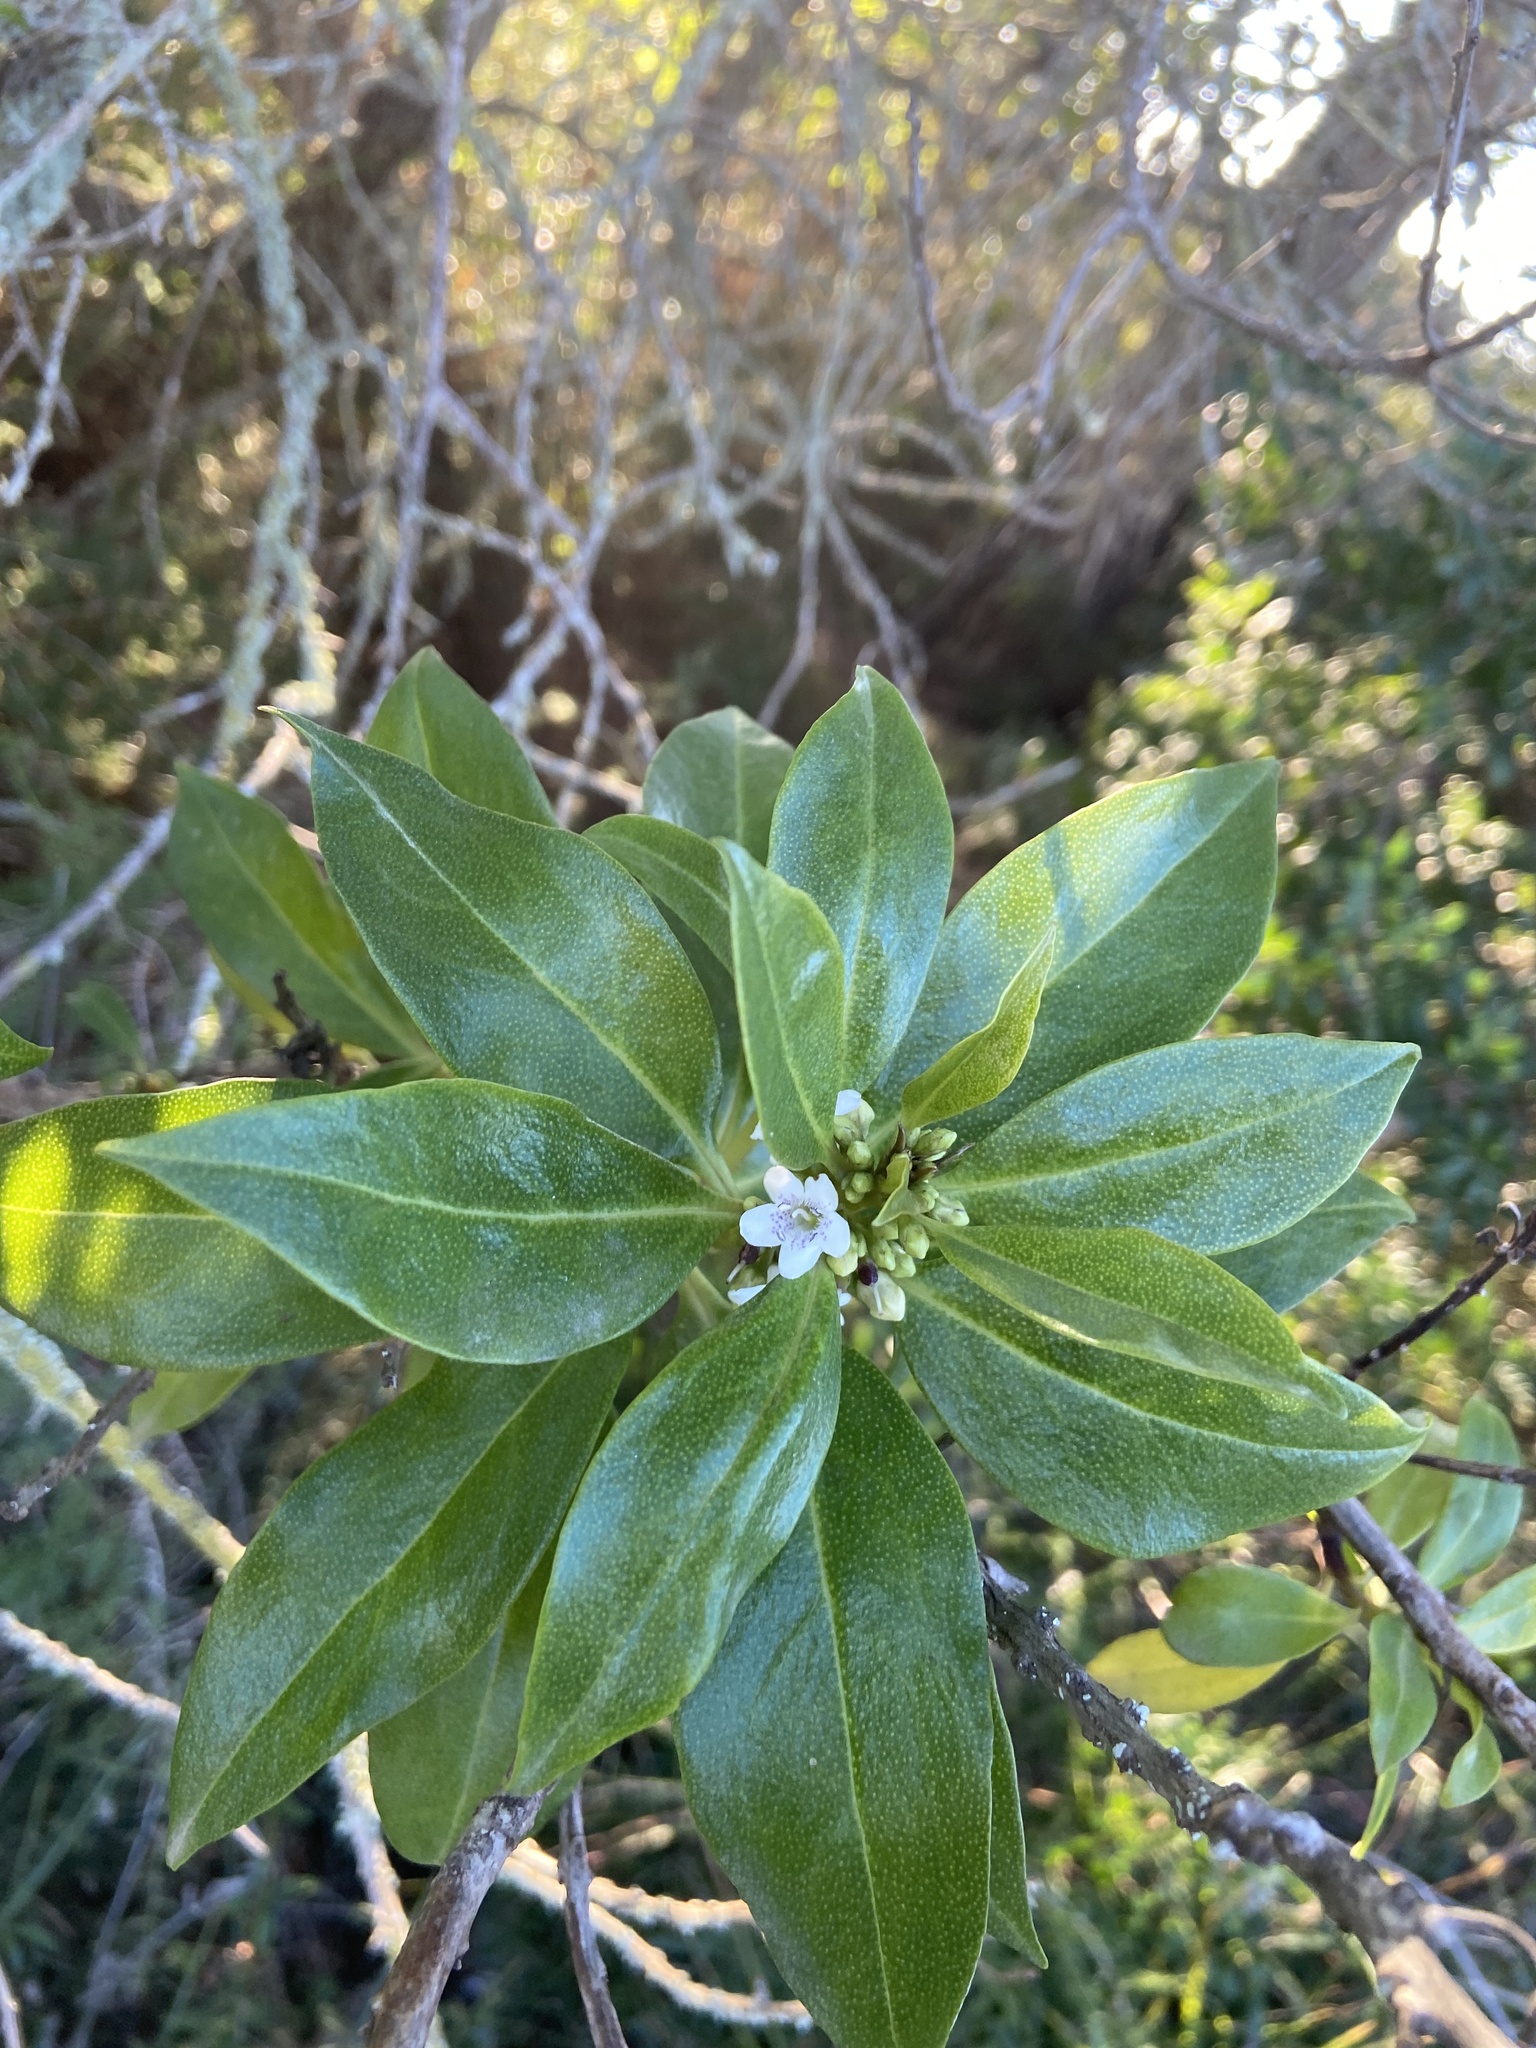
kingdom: Plantae
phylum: Tracheophyta
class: Magnoliopsida
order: Lamiales
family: Scrophulariaceae
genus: Myoporum
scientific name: Myoporum laetum
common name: Ngaio tree
